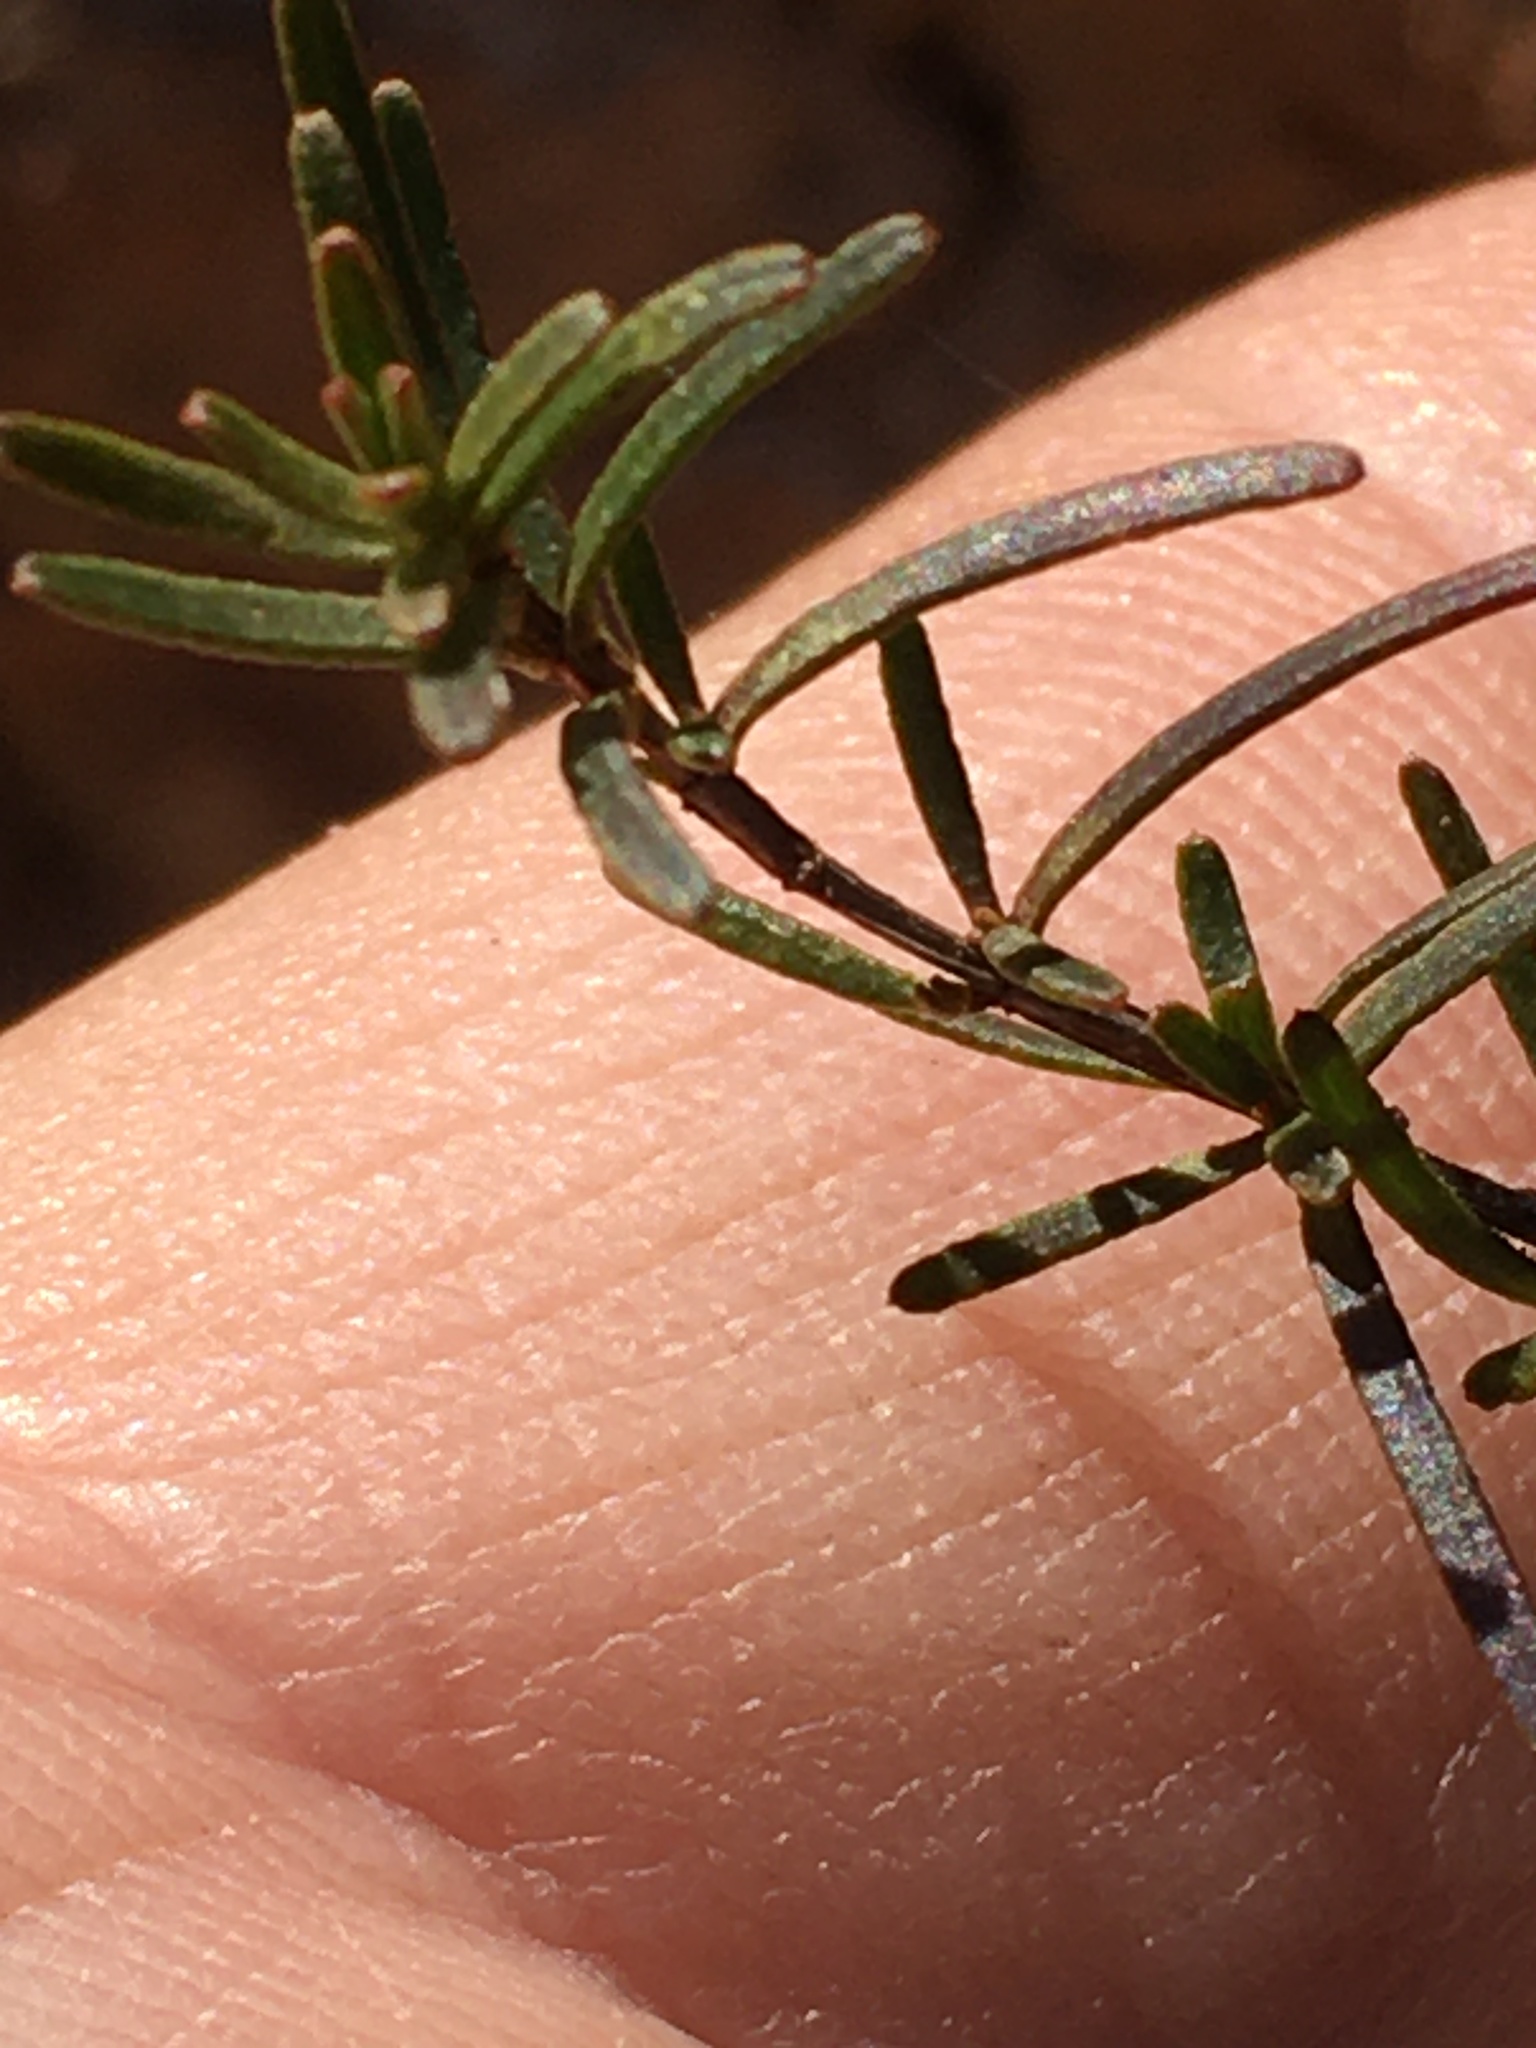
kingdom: Plantae
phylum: Tracheophyta
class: Magnoliopsida
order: Malpighiales
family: Hypericaceae
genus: Hypericum
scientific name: Hypericum lloydii
